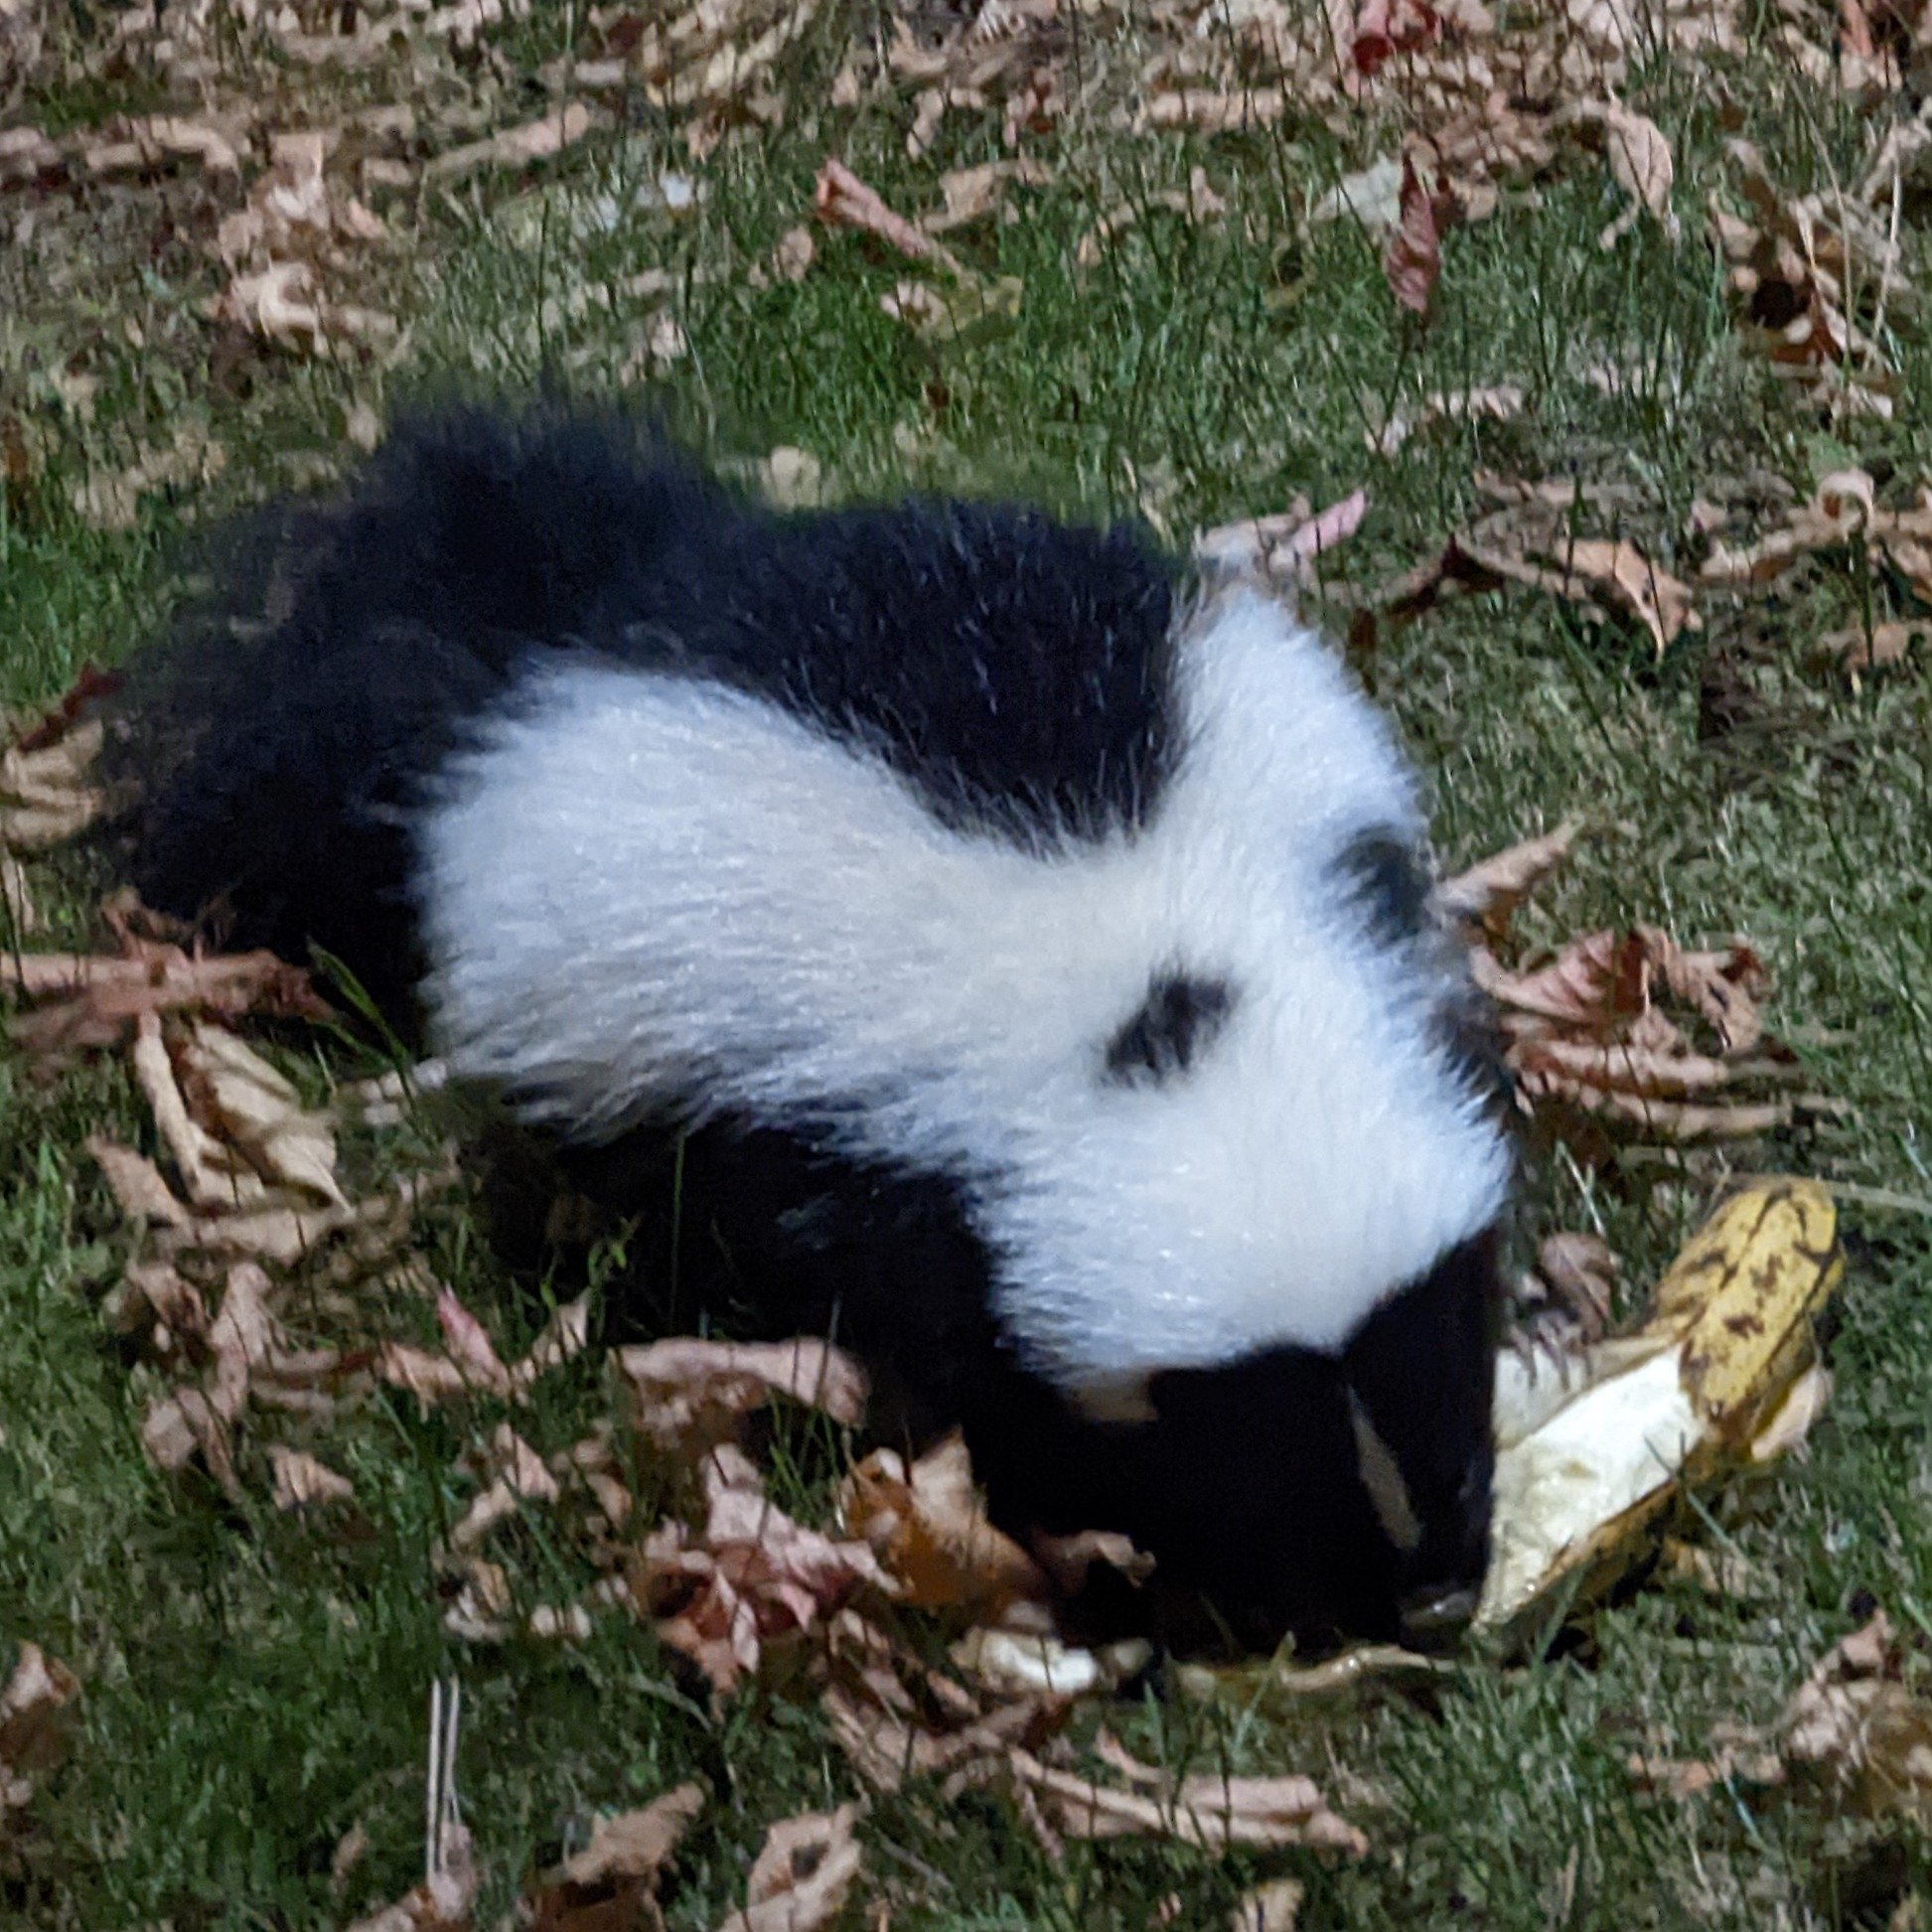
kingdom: Animalia
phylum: Chordata
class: Mammalia
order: Carnivora
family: Mephitidae
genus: Mephitis
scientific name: Mephitis mephitis
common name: Striped skunk
